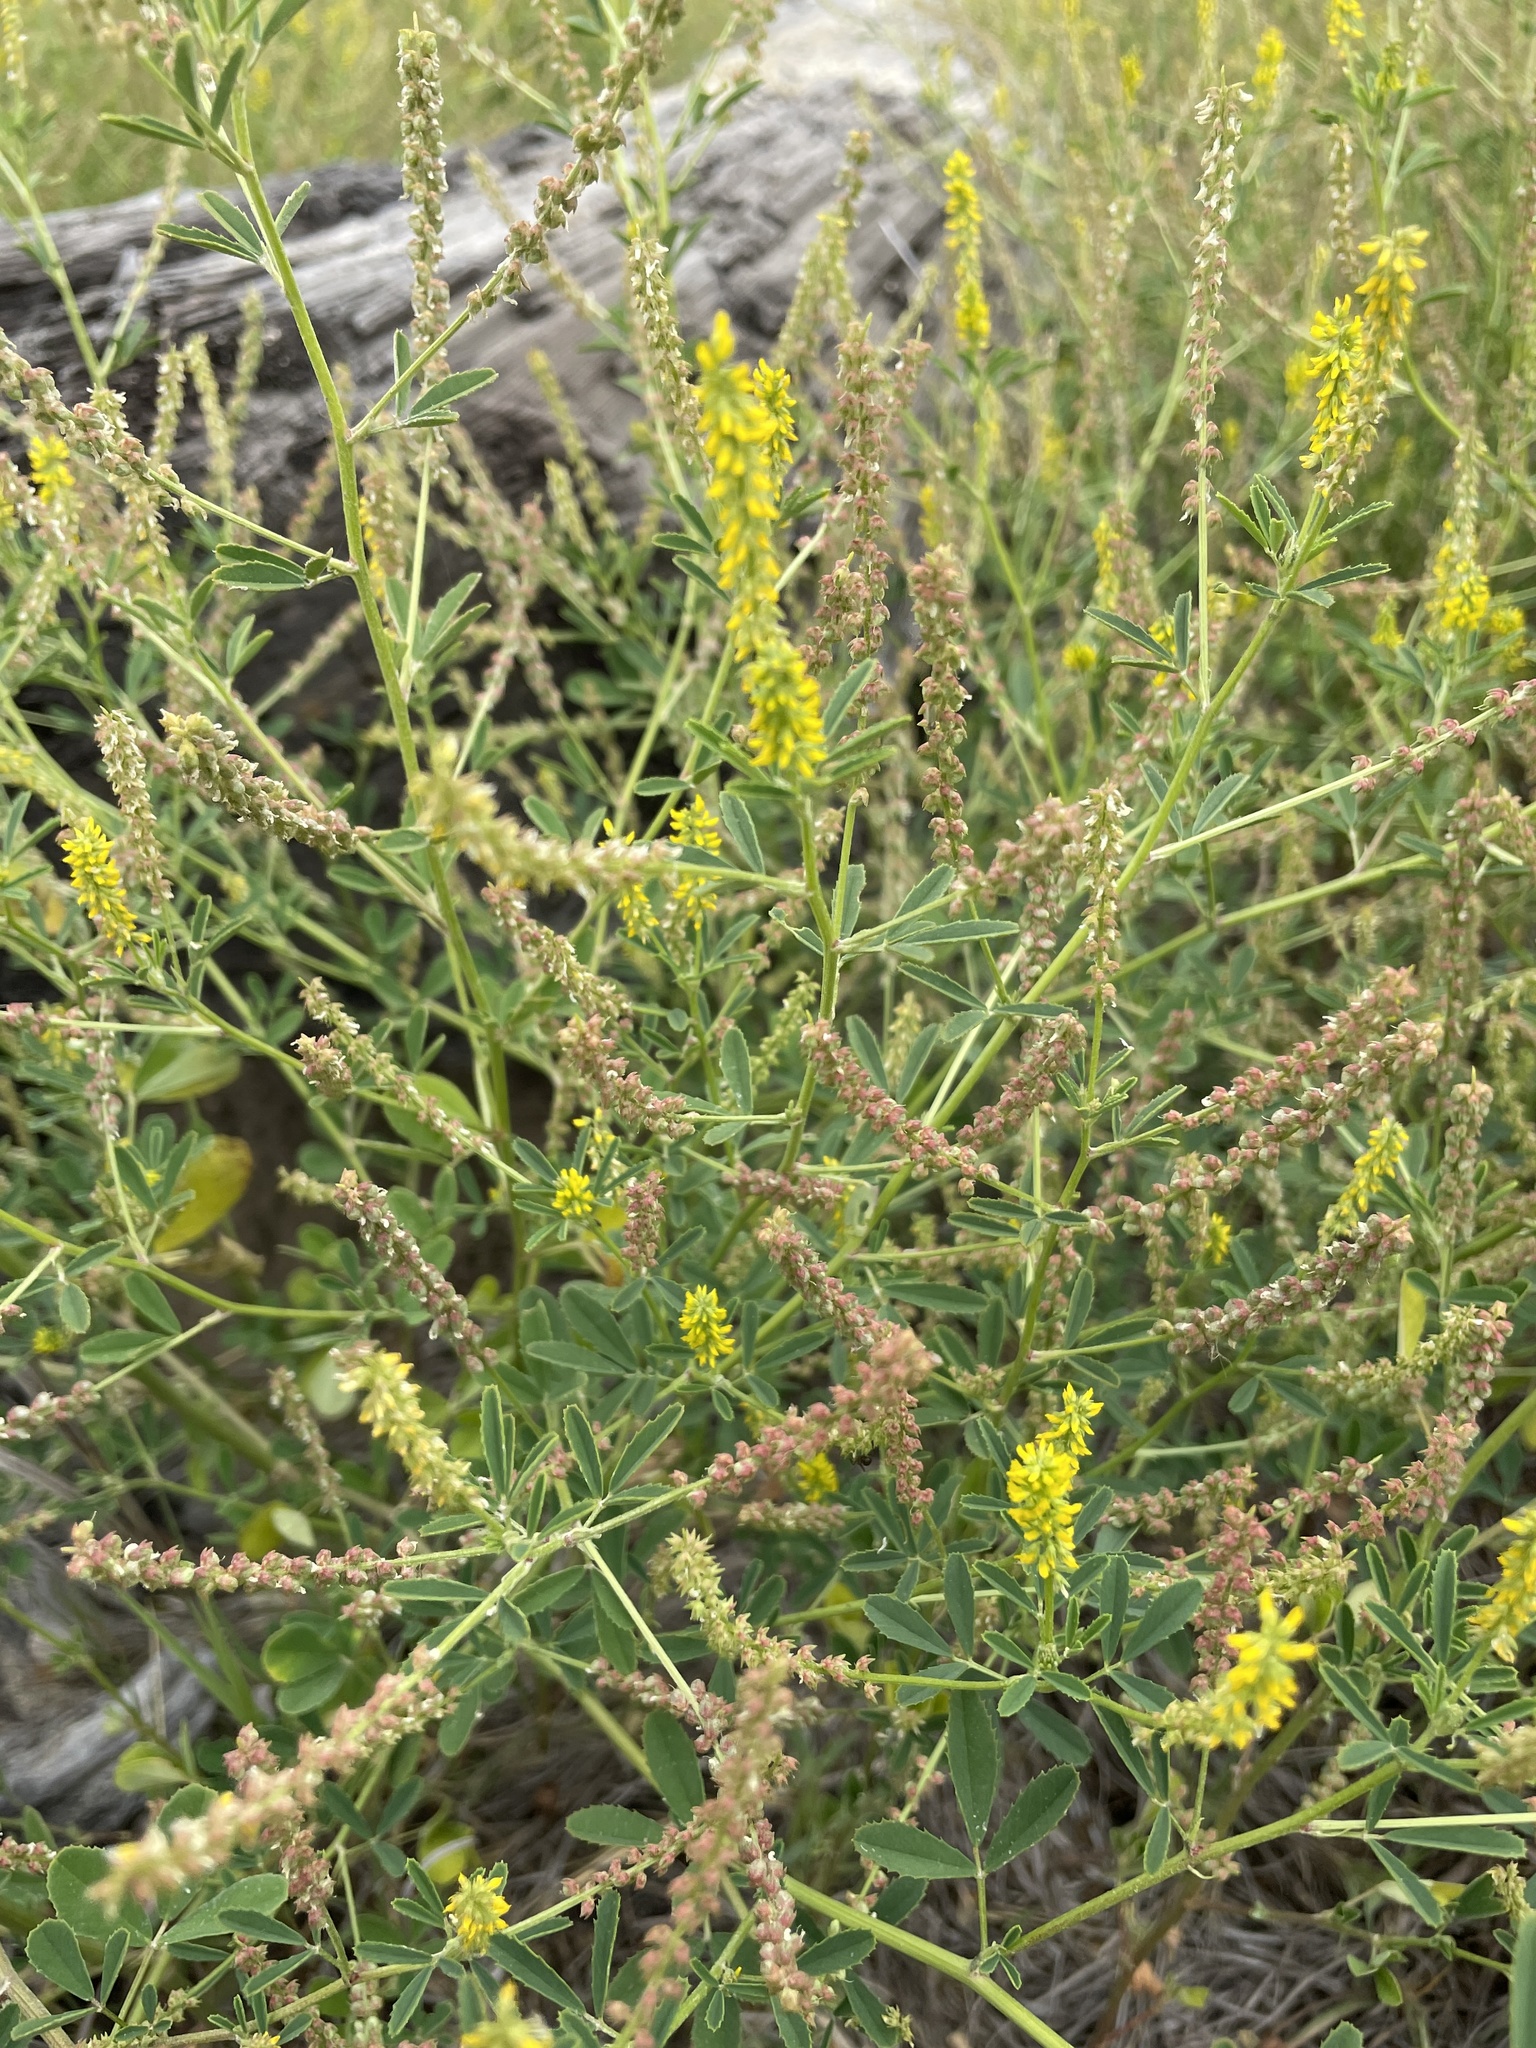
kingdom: Plantae
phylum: Tracheophyta
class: Magnoliopsida
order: Fabales
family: Fabaceae
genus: Melilotus
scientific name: Melilotus indicus
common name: Small melilot
